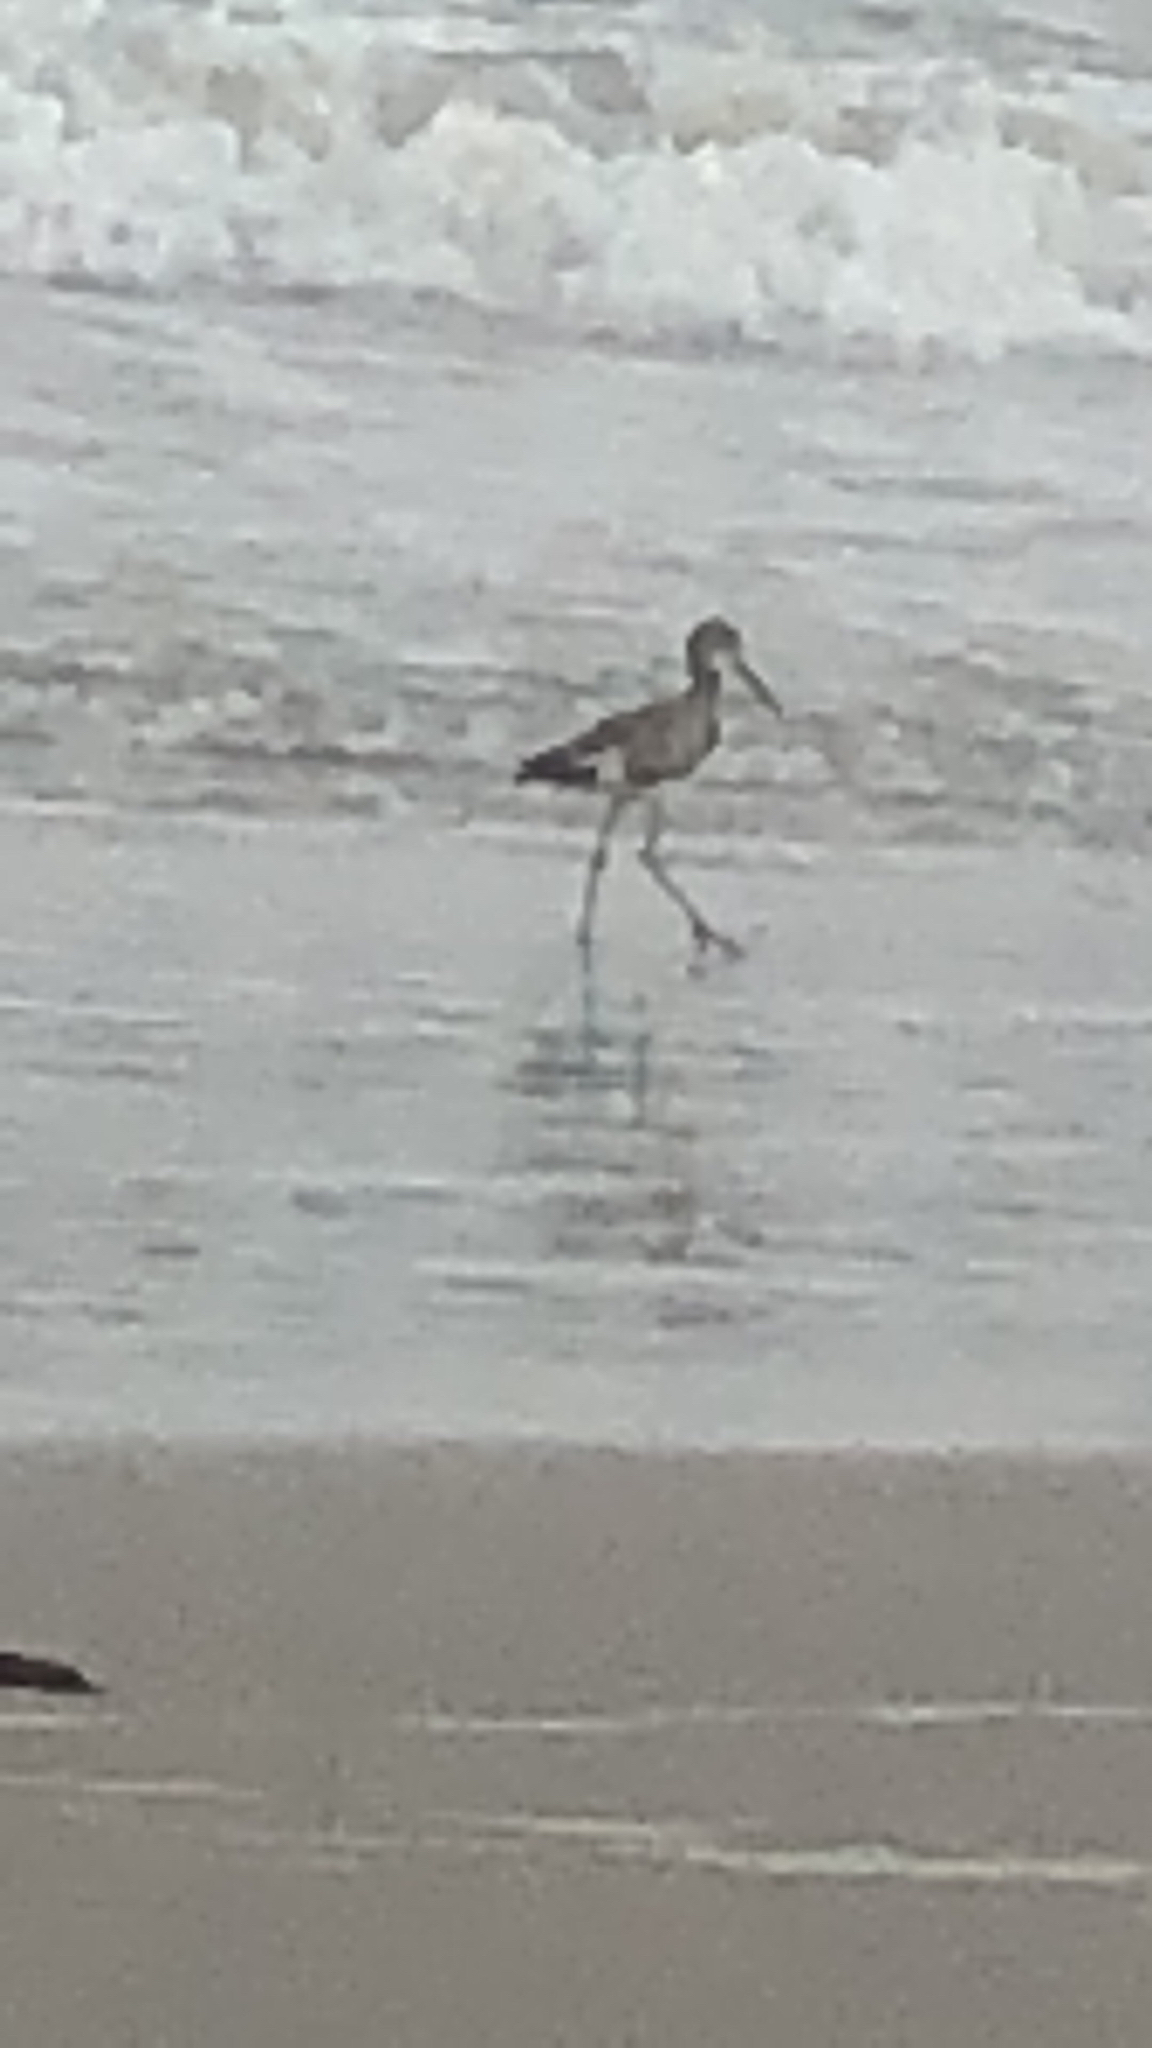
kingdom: Animalia
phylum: Chordata
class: Aves
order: Charadriiformes
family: Scolopacidae
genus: Tringa
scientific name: Tringa semipalmata
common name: Willet
